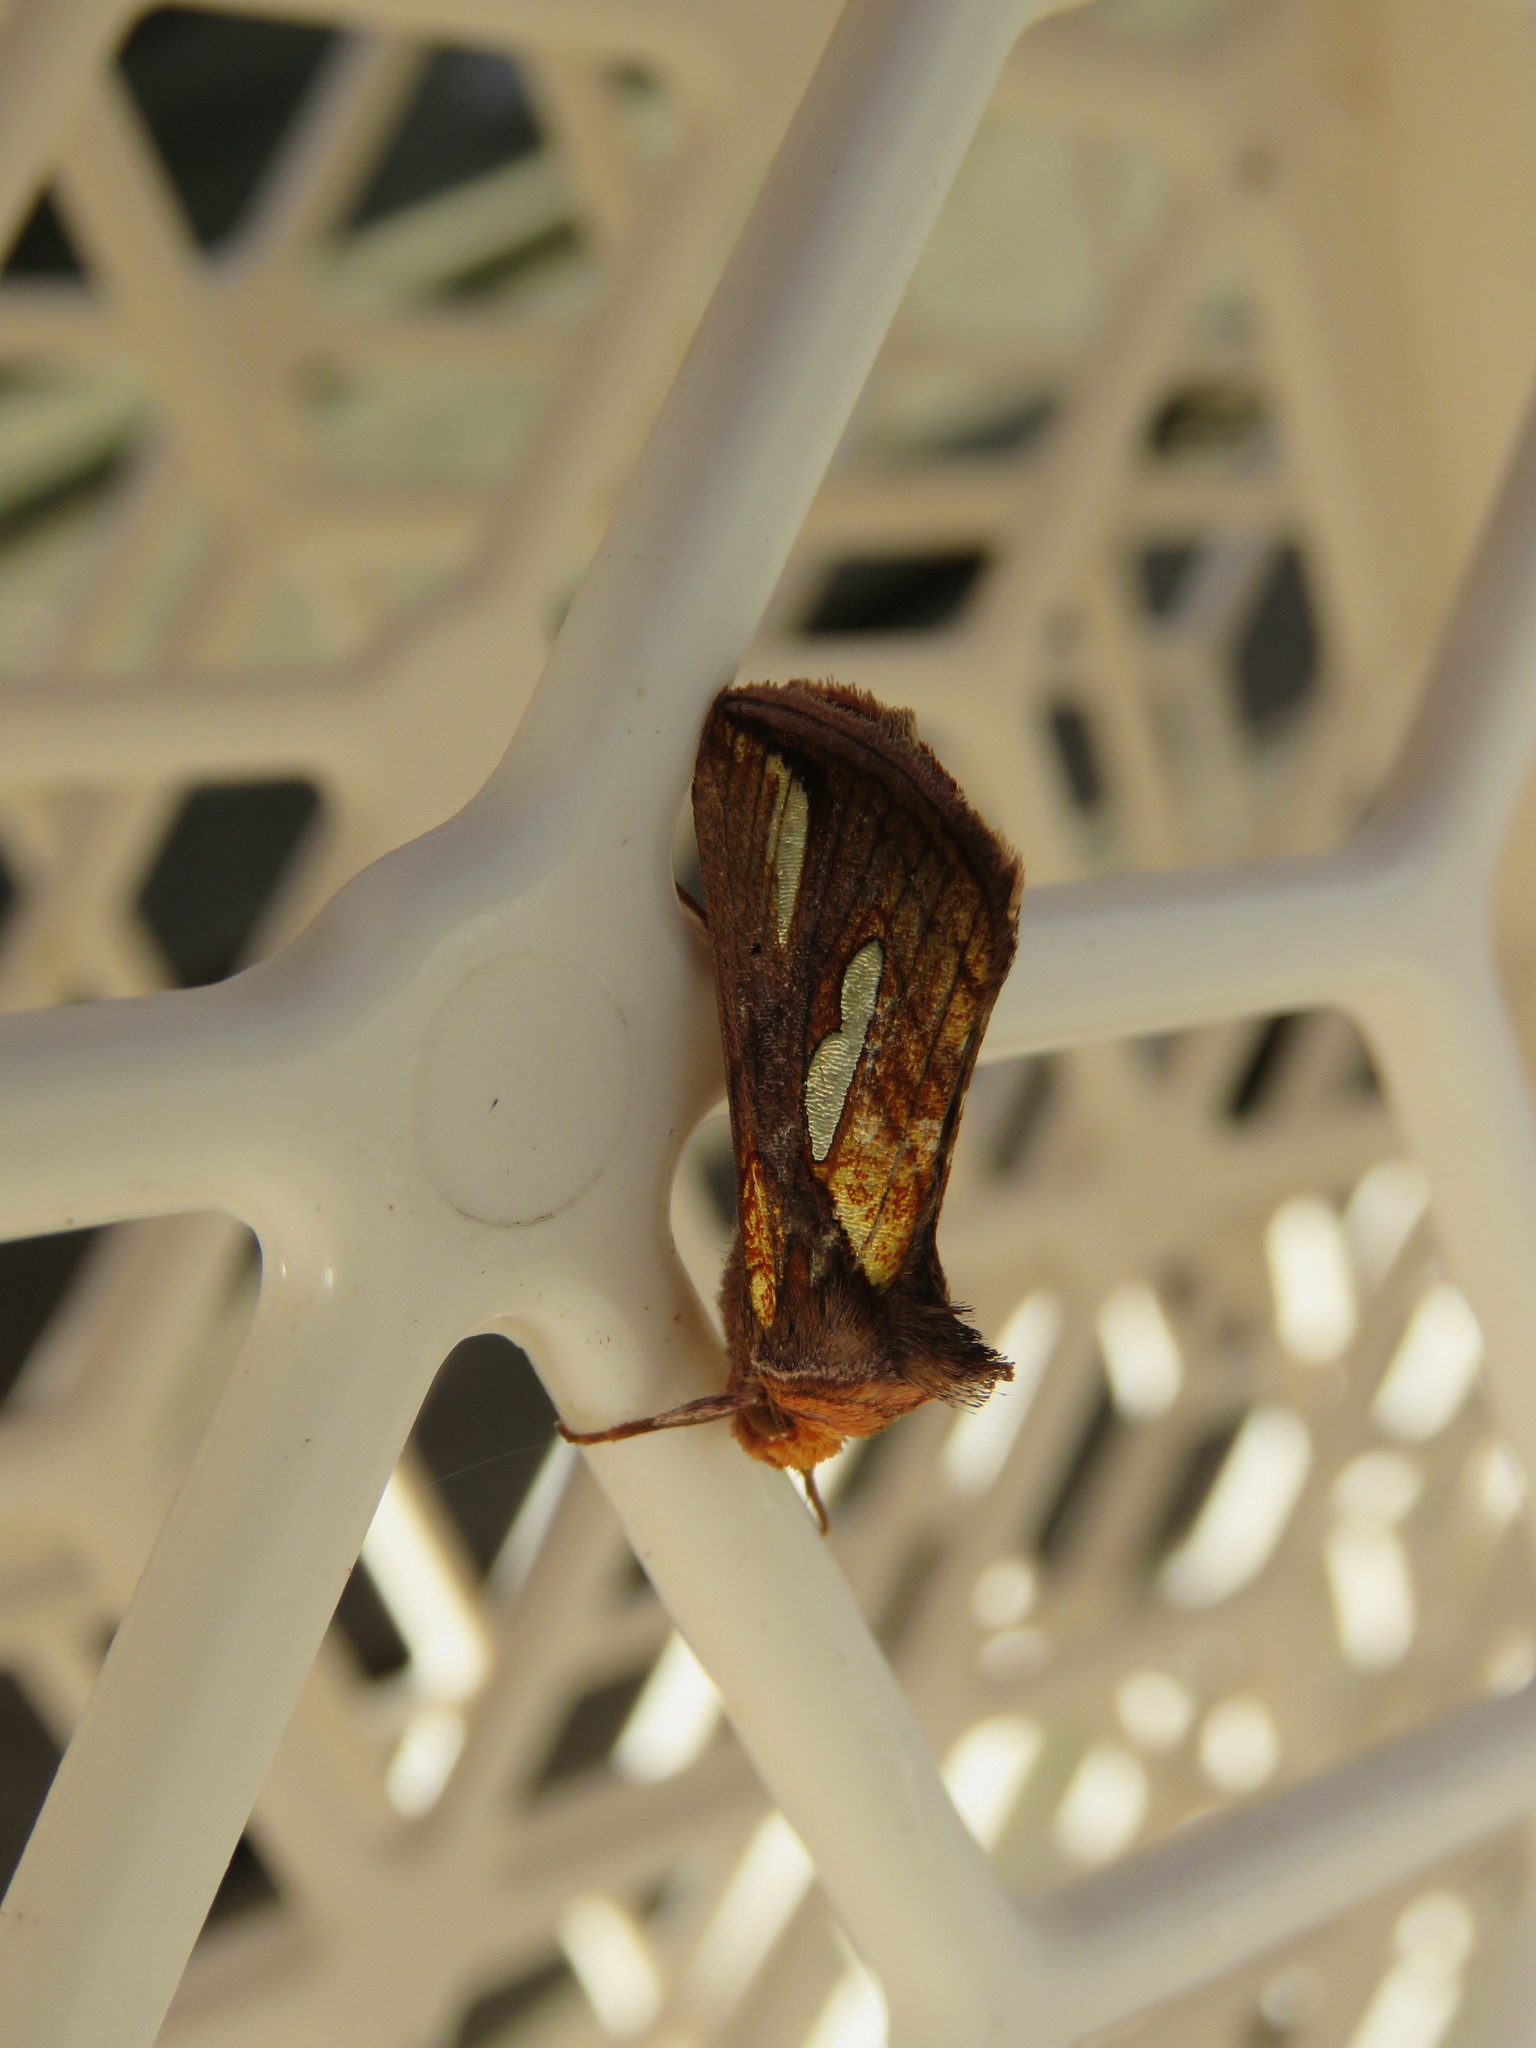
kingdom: Animalia
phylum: Arthropoda
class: Insecta
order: Lepidoptera
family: Noctuidae
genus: Plusia
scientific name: Plusia contexta
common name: Connected looper moth
